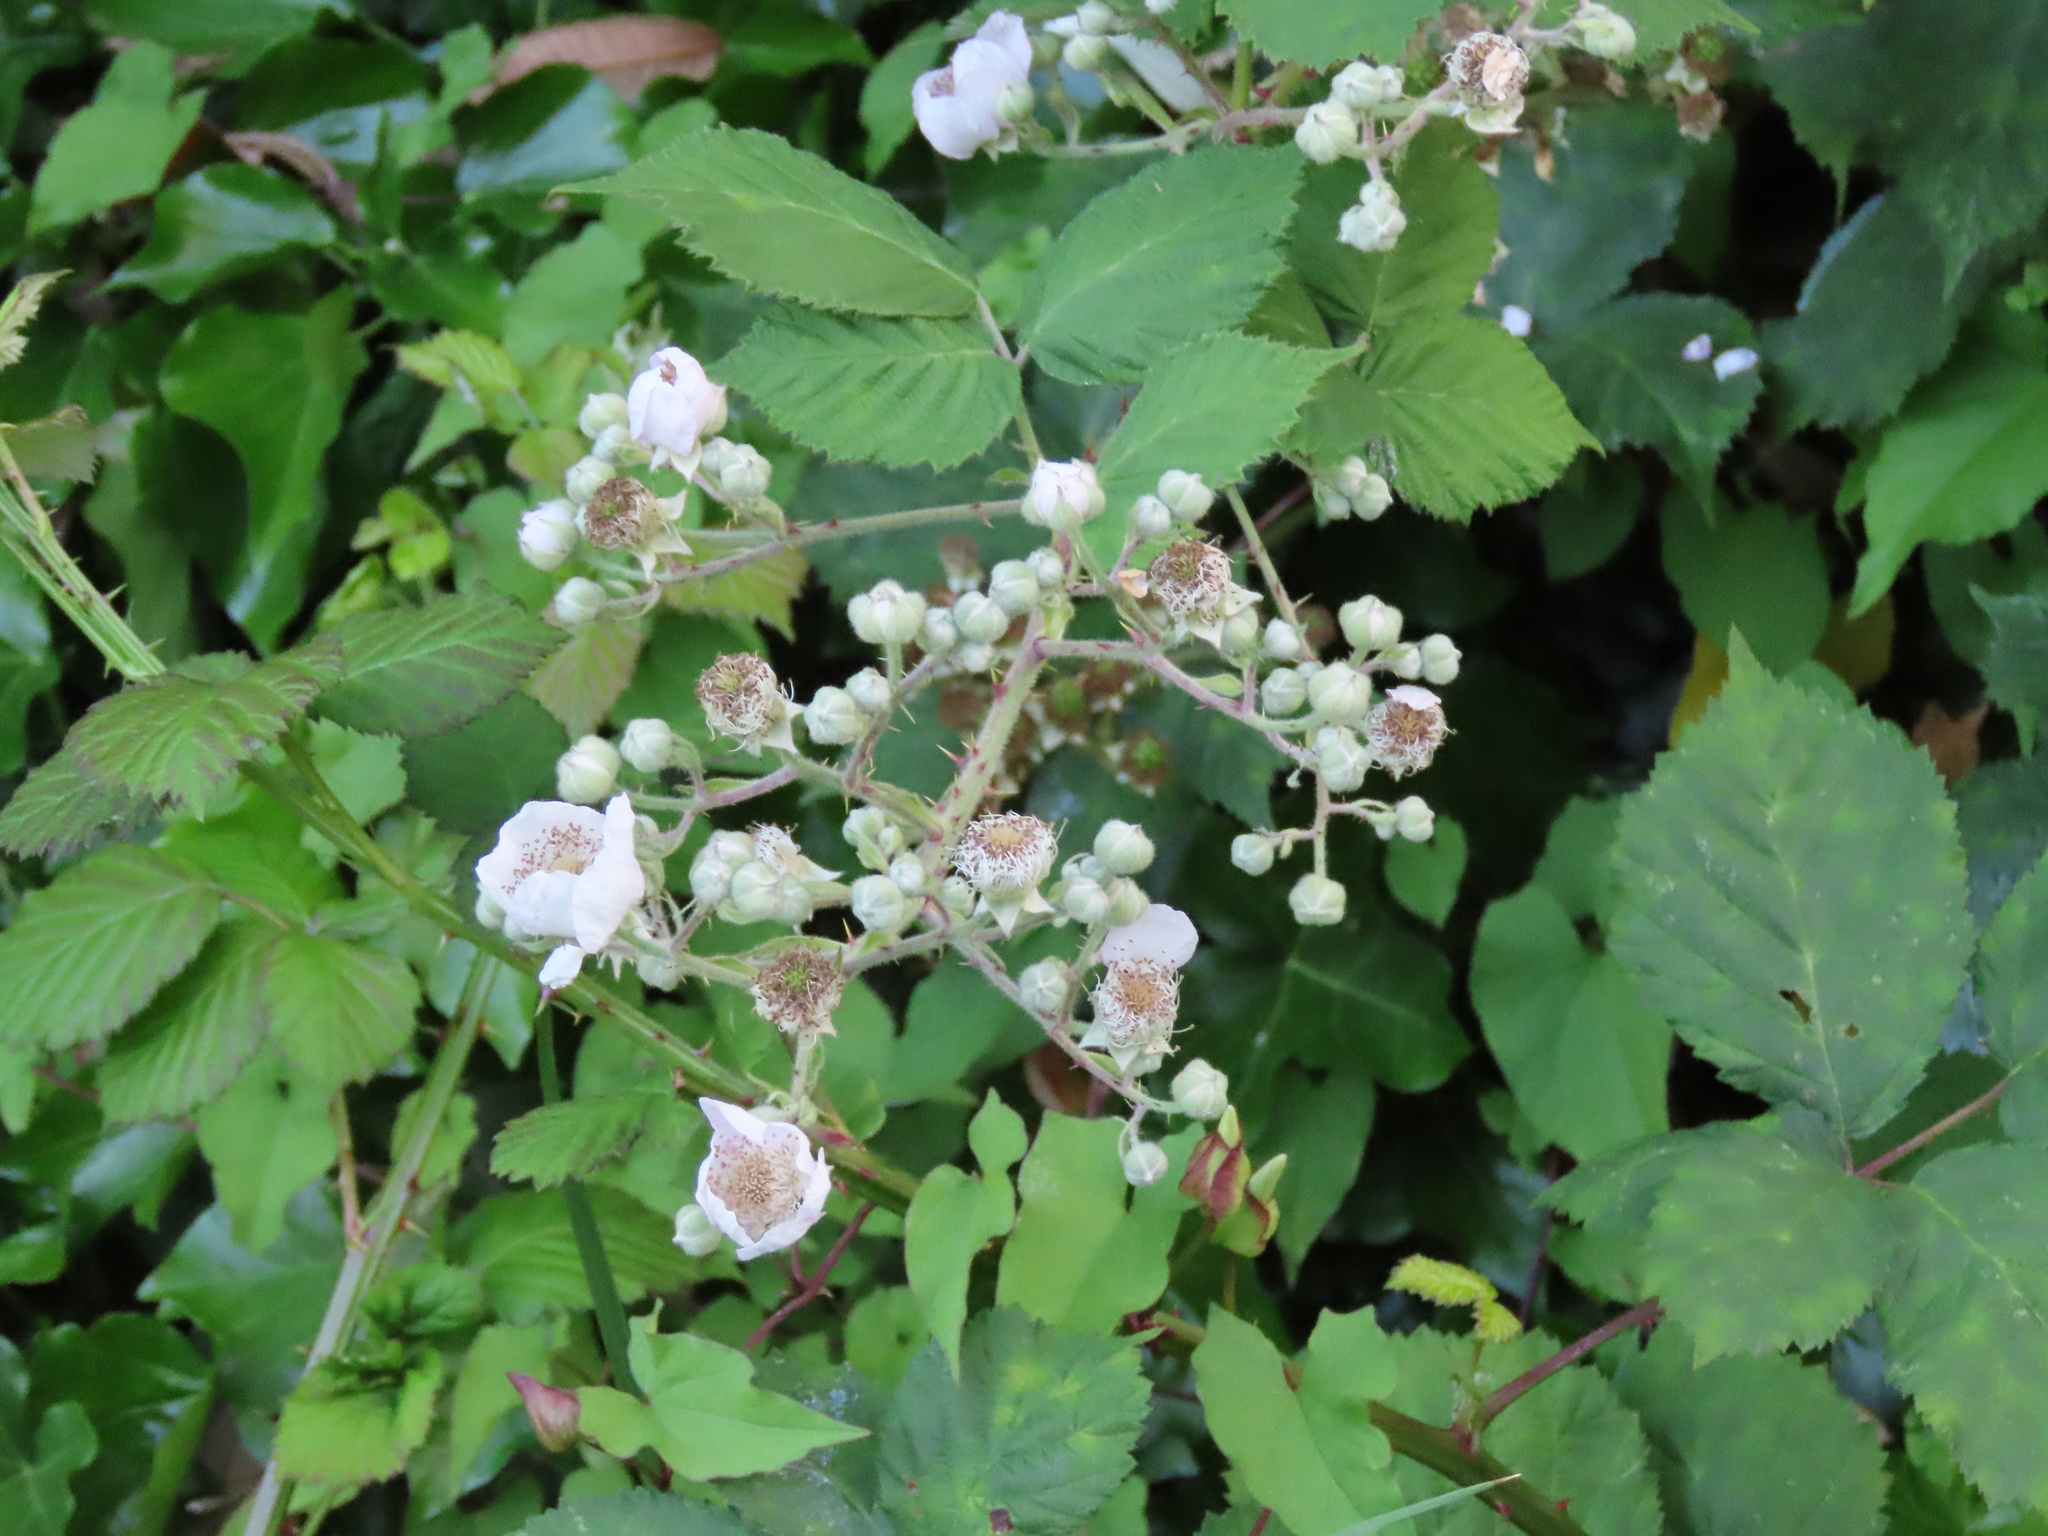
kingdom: Plantae
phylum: Tracheophyta
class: Magnoliopsida
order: Rosales
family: Rosaceae
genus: Rubus
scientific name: Rubus bifrons
